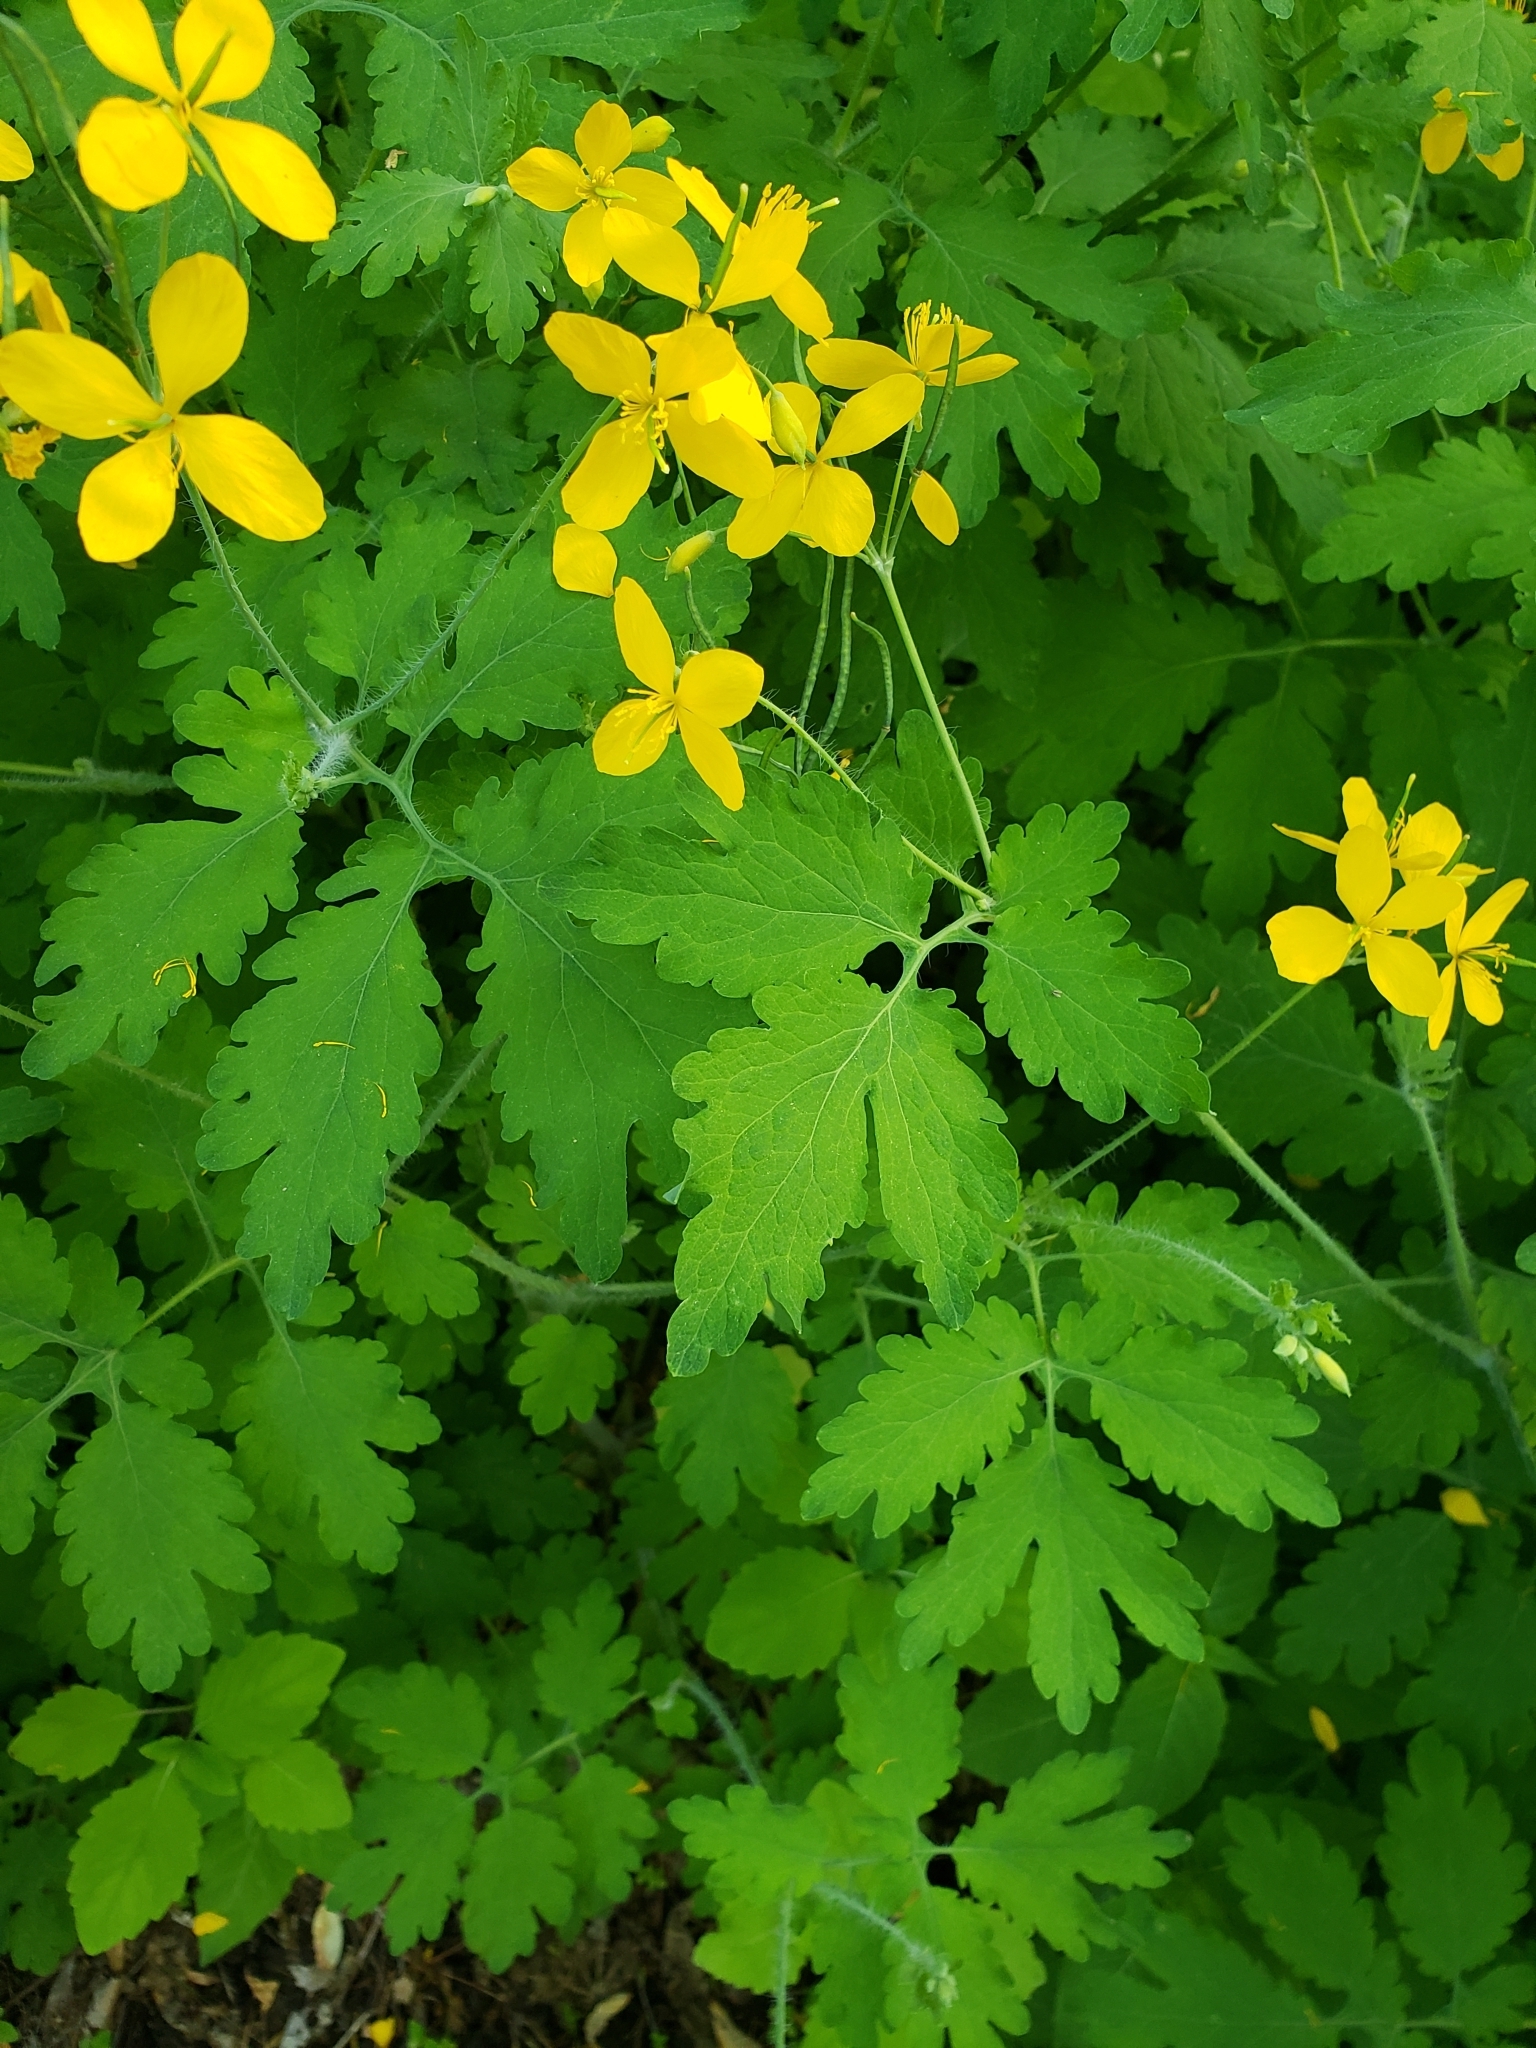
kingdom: Plantae
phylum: Tracheophyta
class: Magnoliopsida
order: Ranunculales
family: Papaveraceae
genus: Chelidonium
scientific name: Chelidonium majus
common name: Greater celandine
